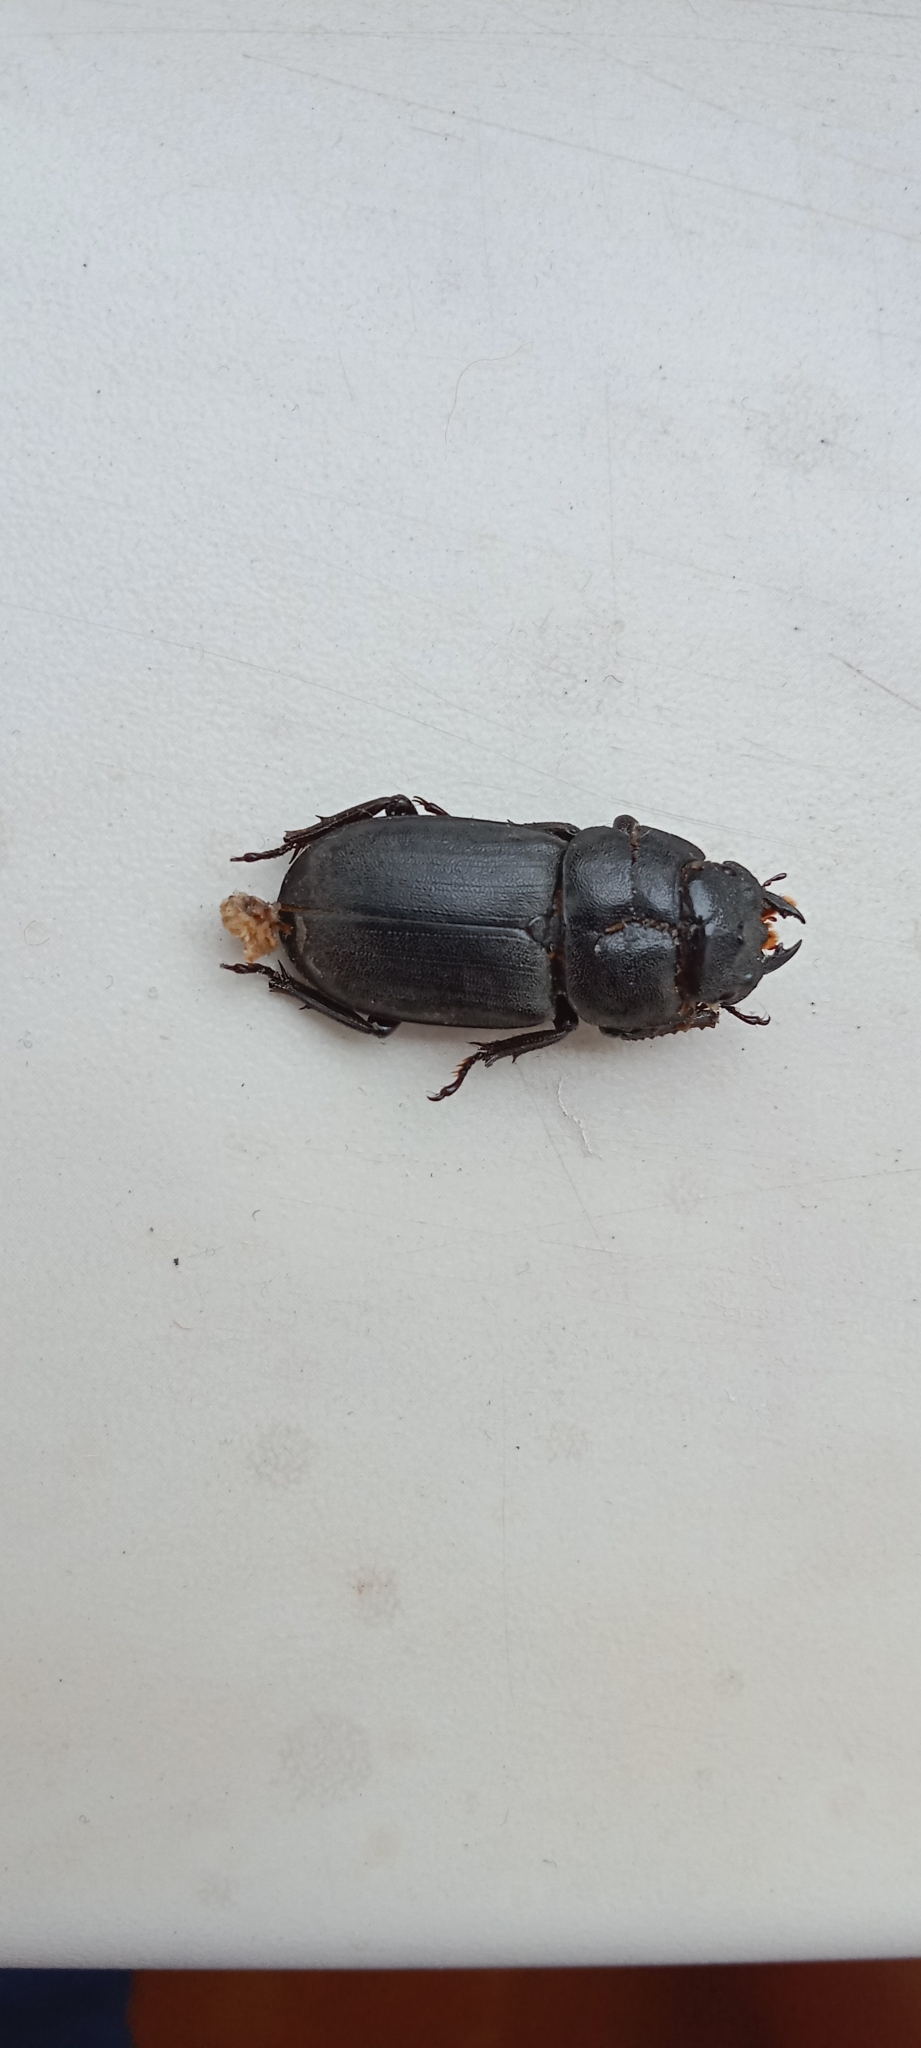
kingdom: Animalia
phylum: Arthropoda
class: Insecta
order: Coleoptera
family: Lucanidae
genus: Dorcus
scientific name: Dorcus parallelipipedus
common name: Lesser stag beetle
